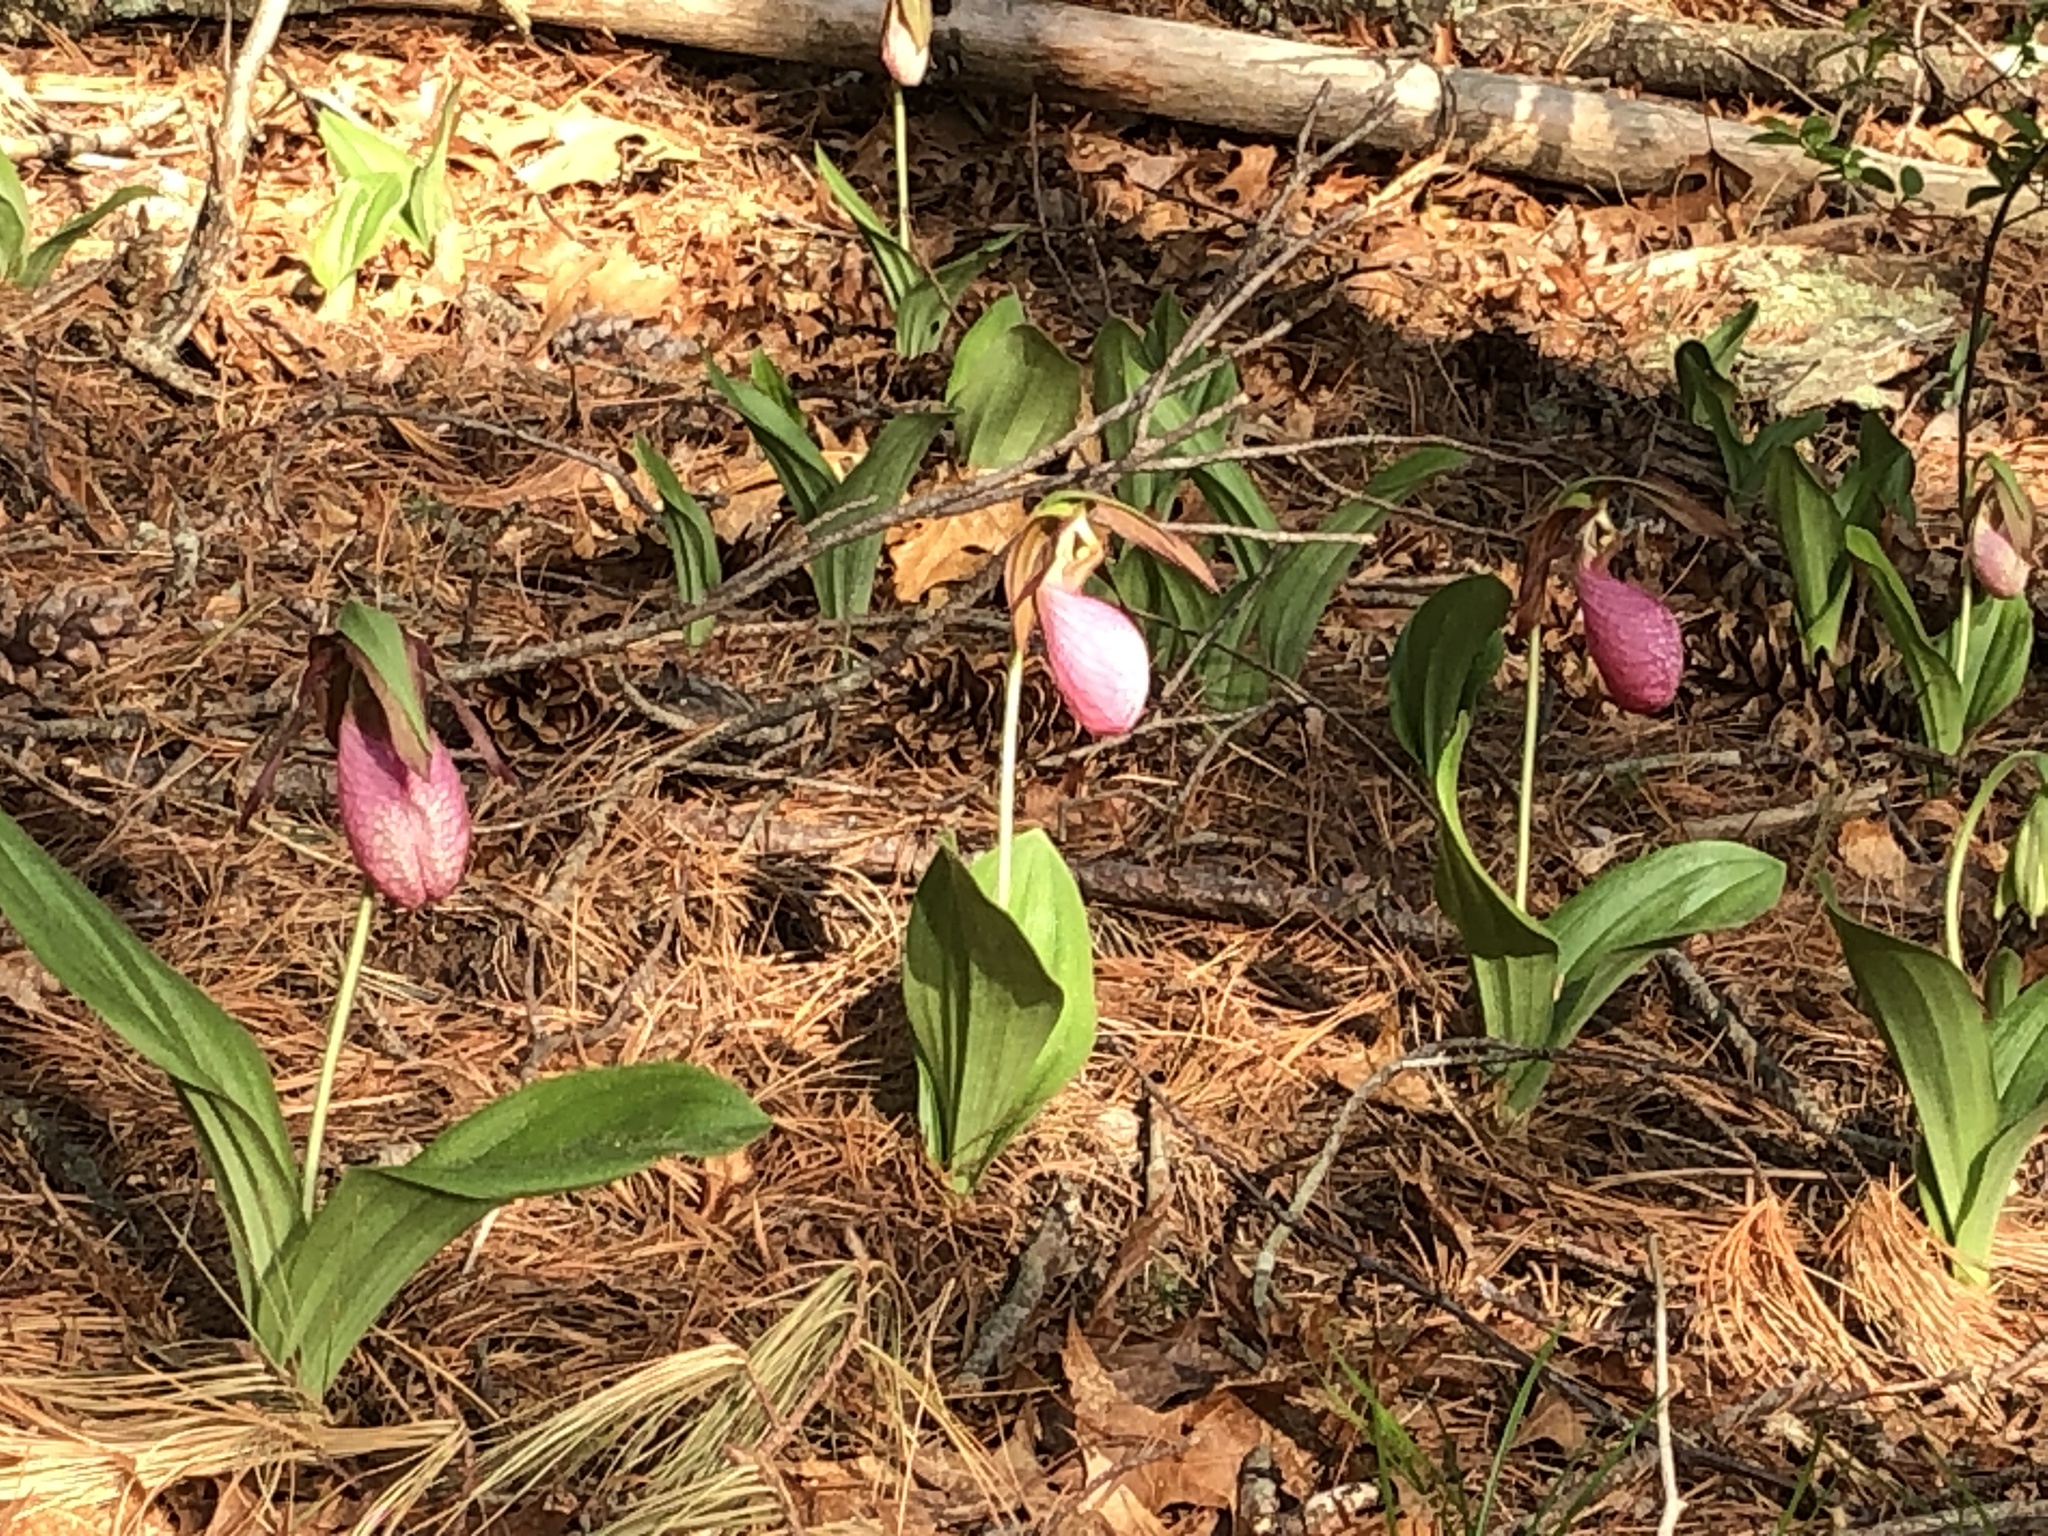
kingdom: Plantae
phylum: Tracheophyta
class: Liliopsida
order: Asparagales
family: Orchidaceae
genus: Cypripedium
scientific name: Cypripedium acaule
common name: Pink lady's-slipper
